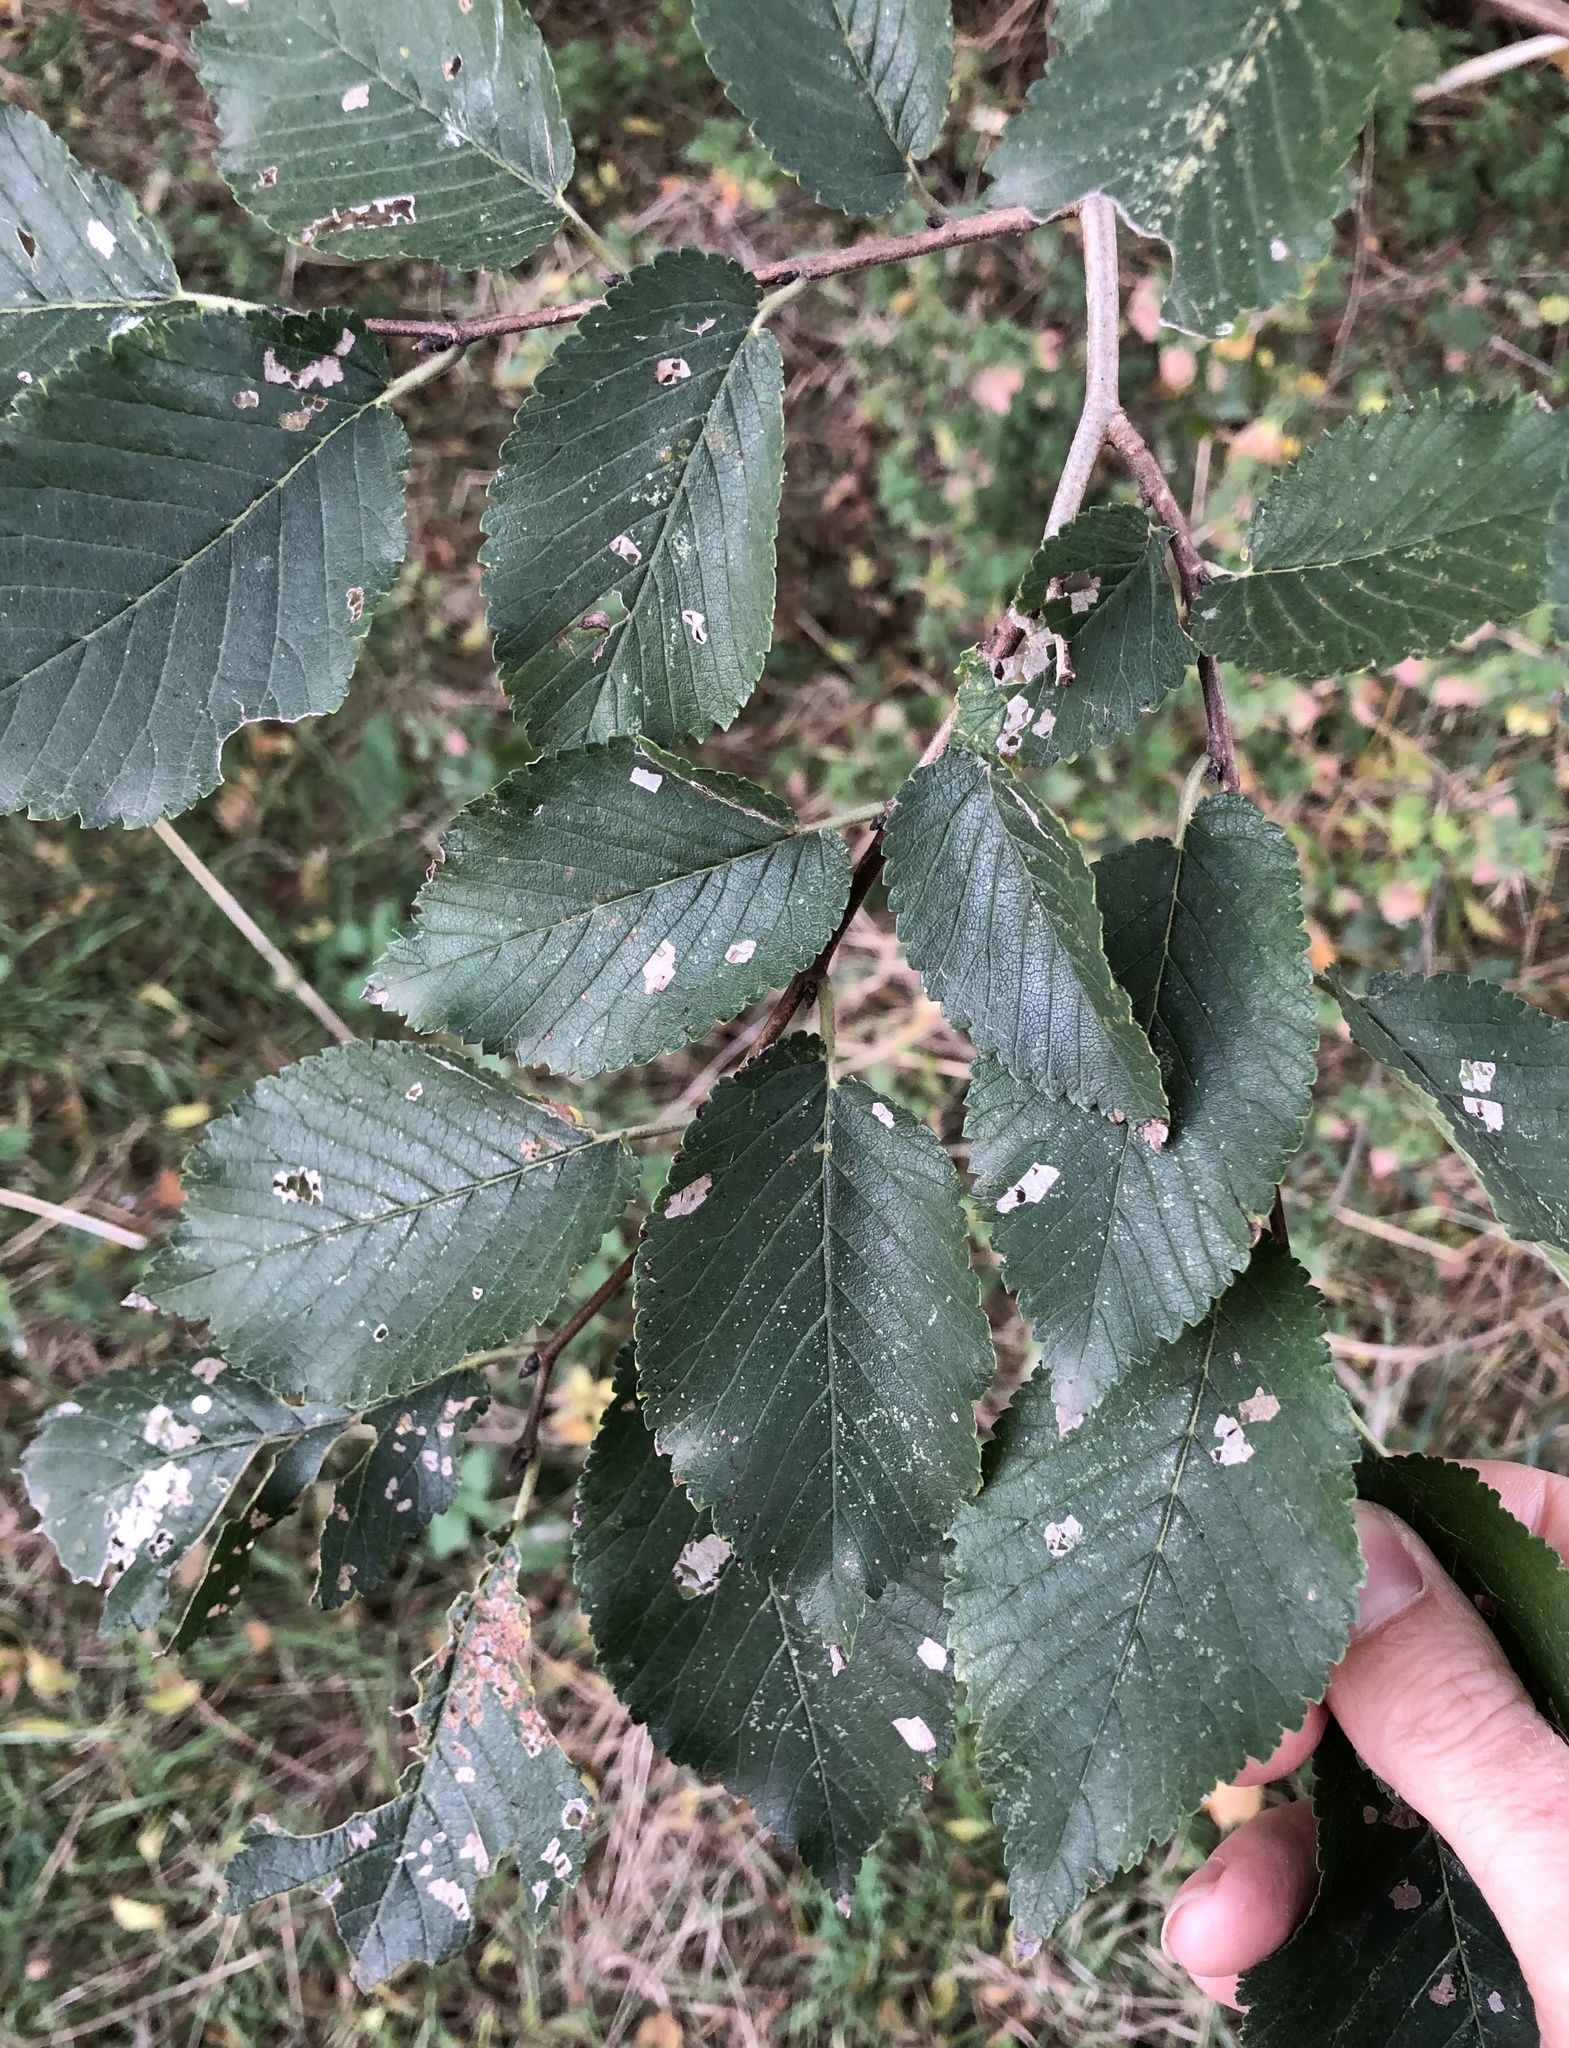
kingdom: Plantae
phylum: Tracheophyta
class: Magnoliopsida
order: Rosales
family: Ulmaceae
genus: Ulmus
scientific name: Ulmus minor
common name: Small-leaved elm
